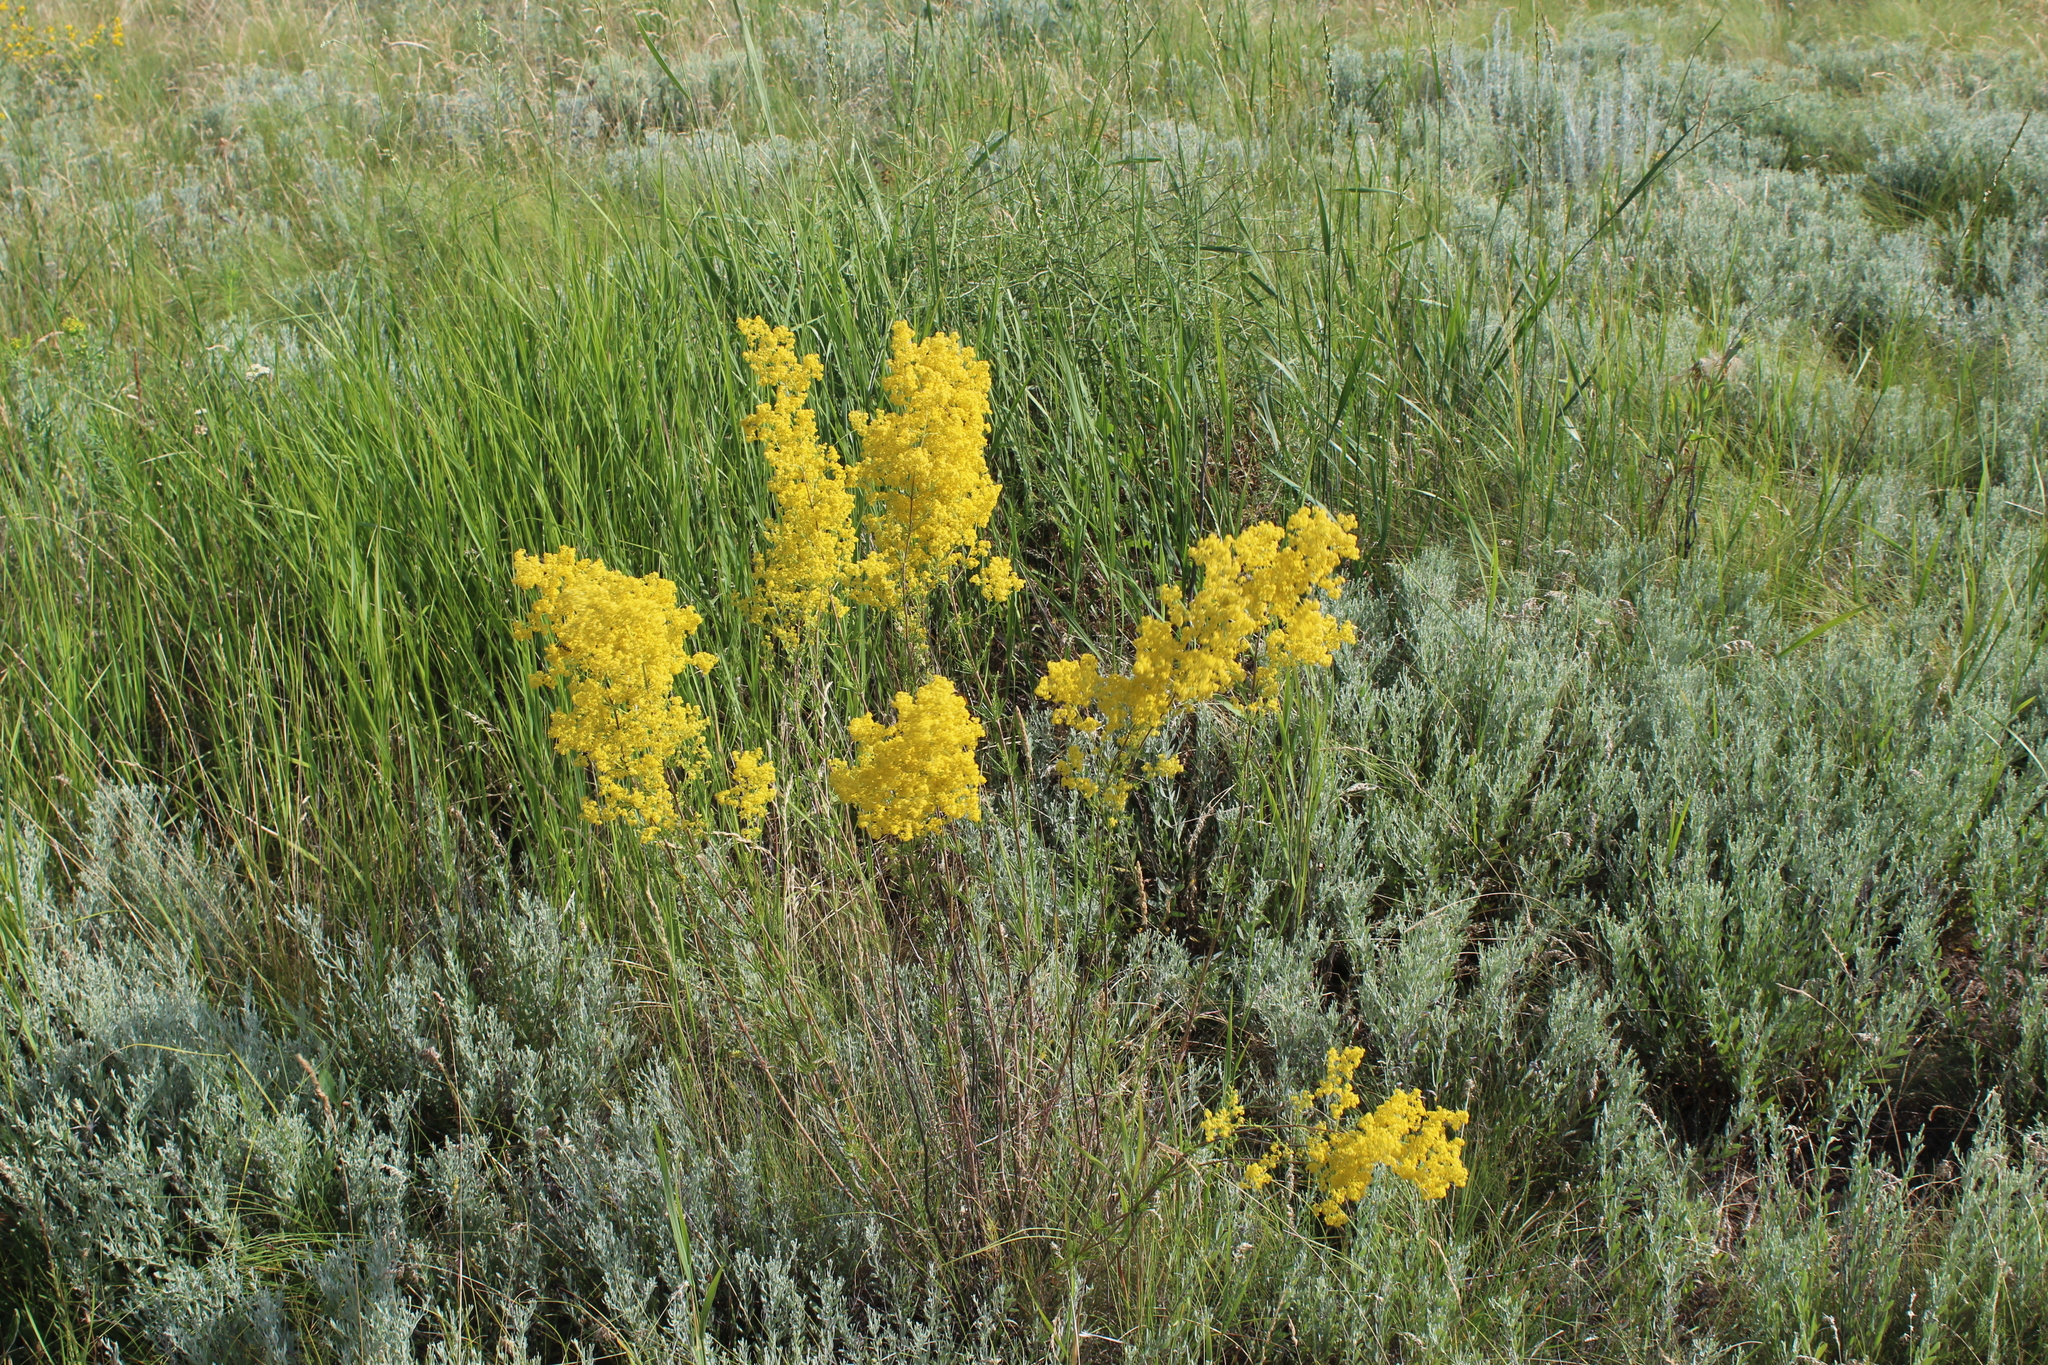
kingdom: Plantae
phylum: Tracheophyta
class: Magnoliopsida
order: Gentianales
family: Rubiaceae
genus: Galium
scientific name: Galium verum
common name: Lady's bedstraw
